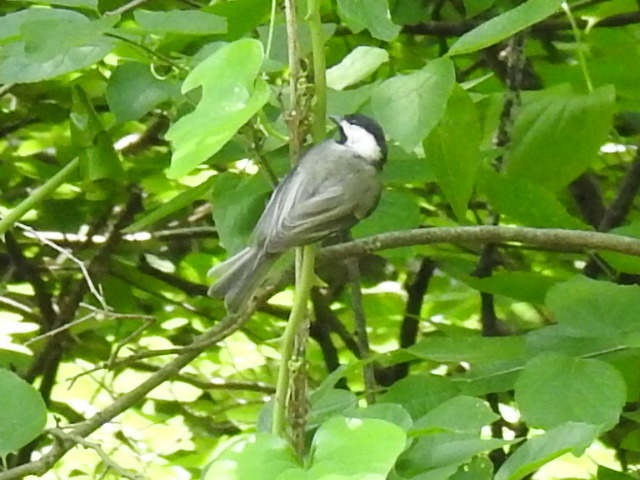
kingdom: Animalia
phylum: Chordata
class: Aves
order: Passeriformes
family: Paridae
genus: Poecile
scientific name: Poecile carolinensis
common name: Carolina chickadee
